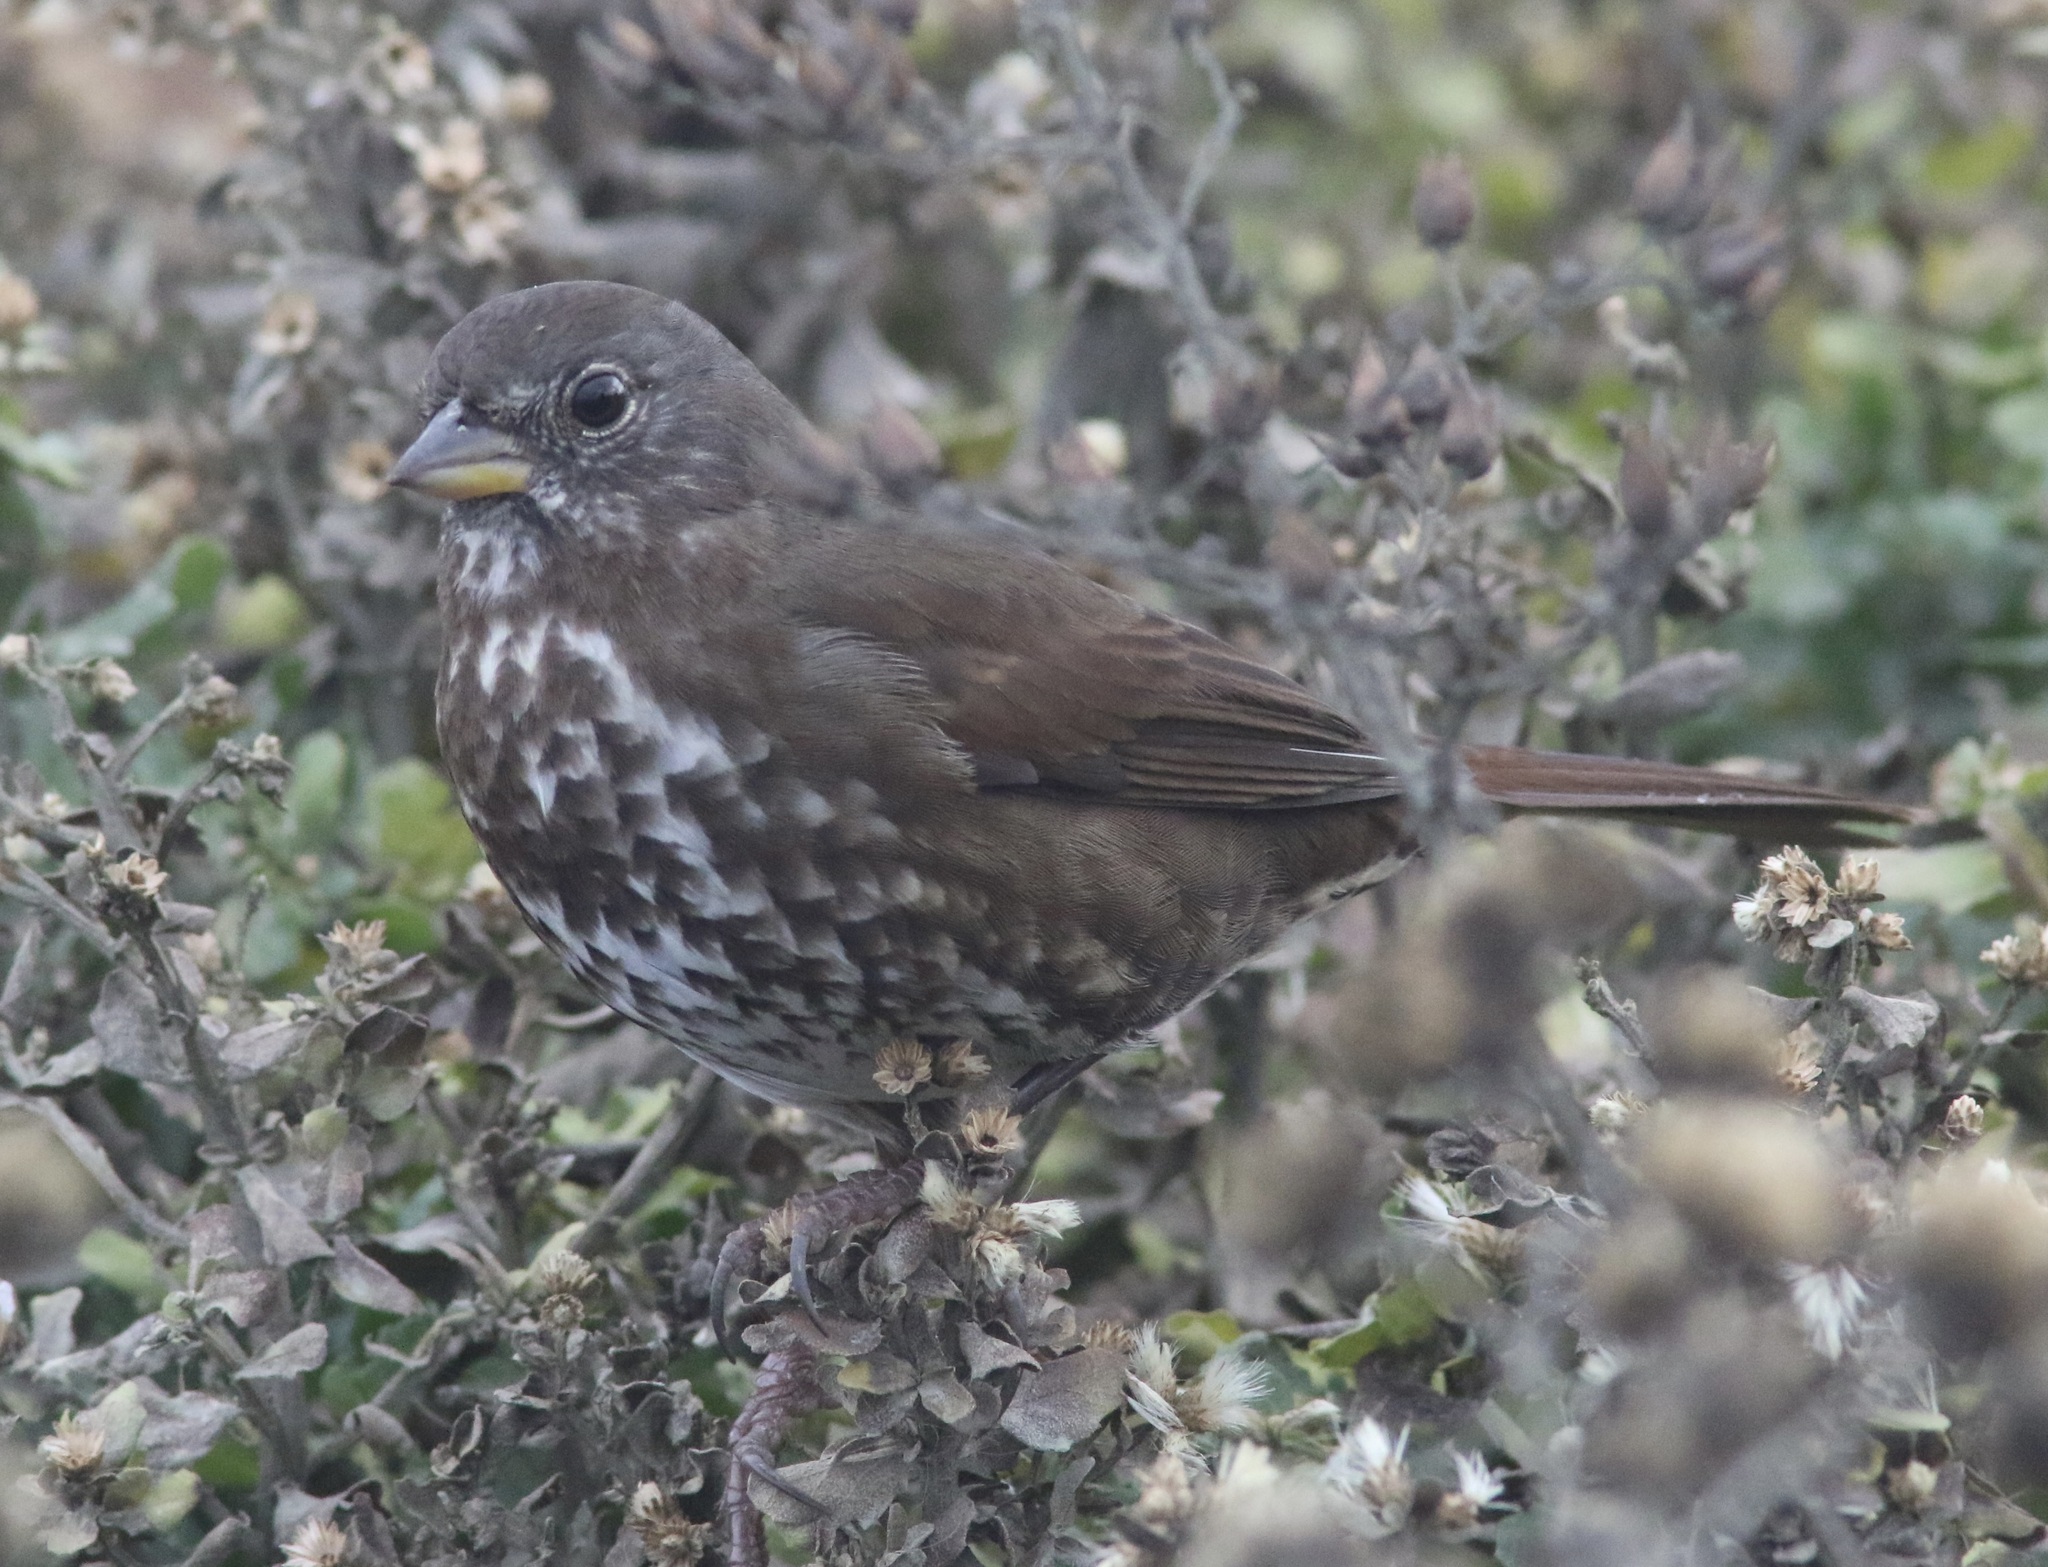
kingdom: Animalia
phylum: Chordata
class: Aves
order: Passeriformes
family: Passerellidae
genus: Passerella
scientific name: Passerella iliaca
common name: Fox sparrow
